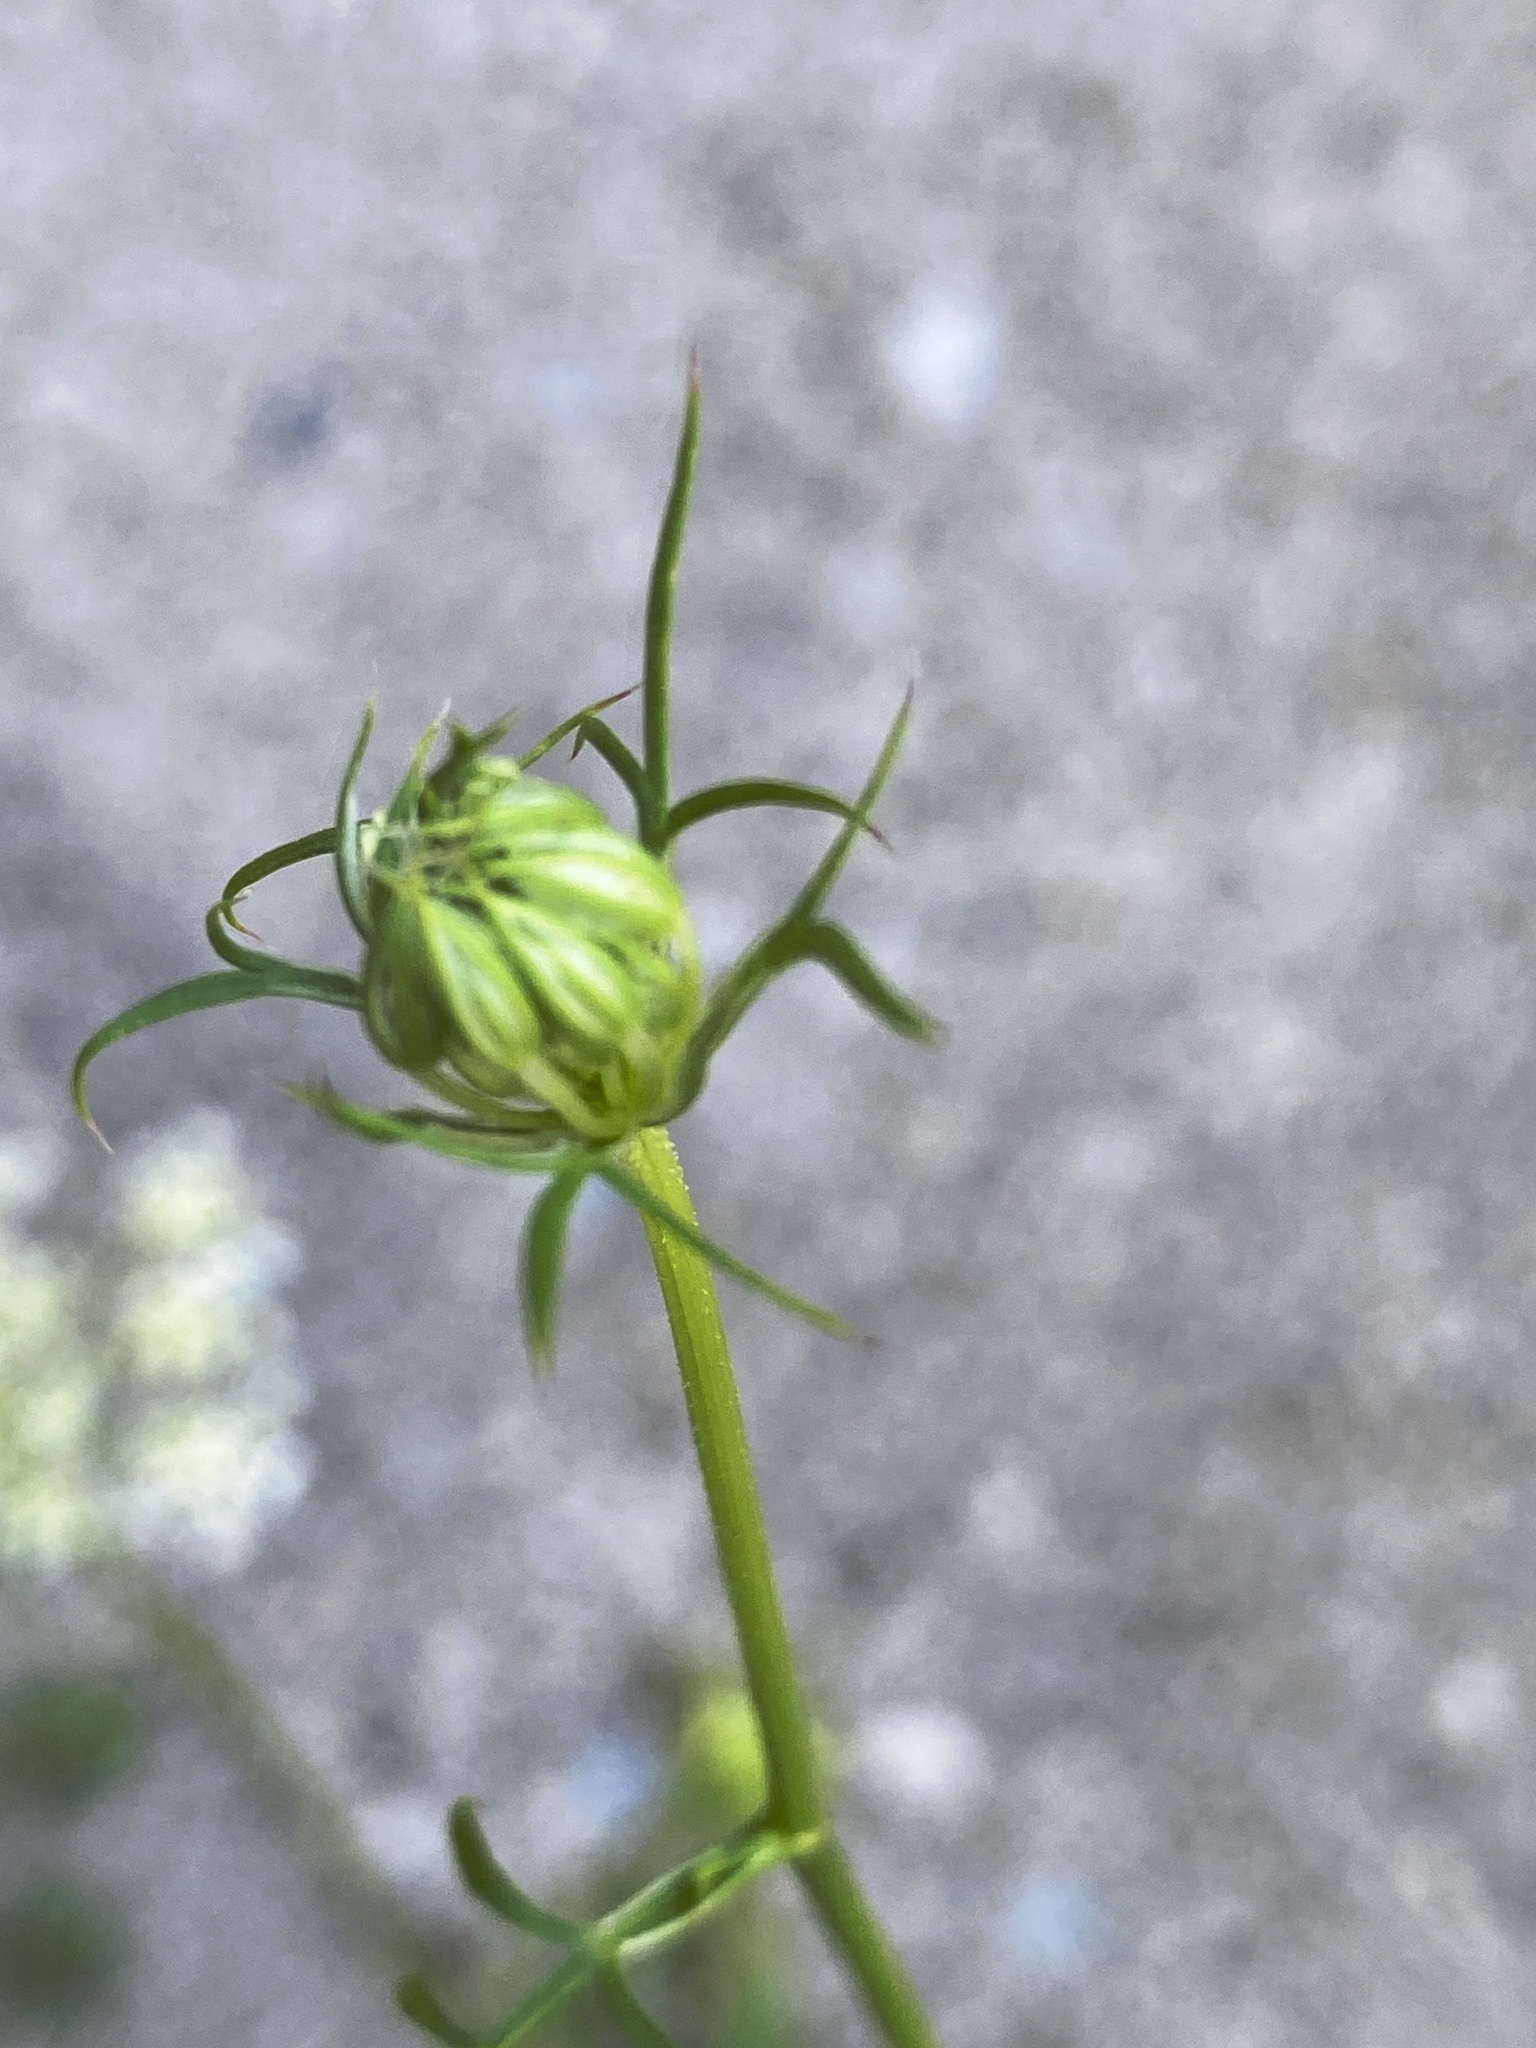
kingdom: Plantae
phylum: Tracheophyta
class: Magnoliopsida
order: Apiales
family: Apiaceae
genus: Daucus
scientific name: Daucus carota
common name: Wild carrot
